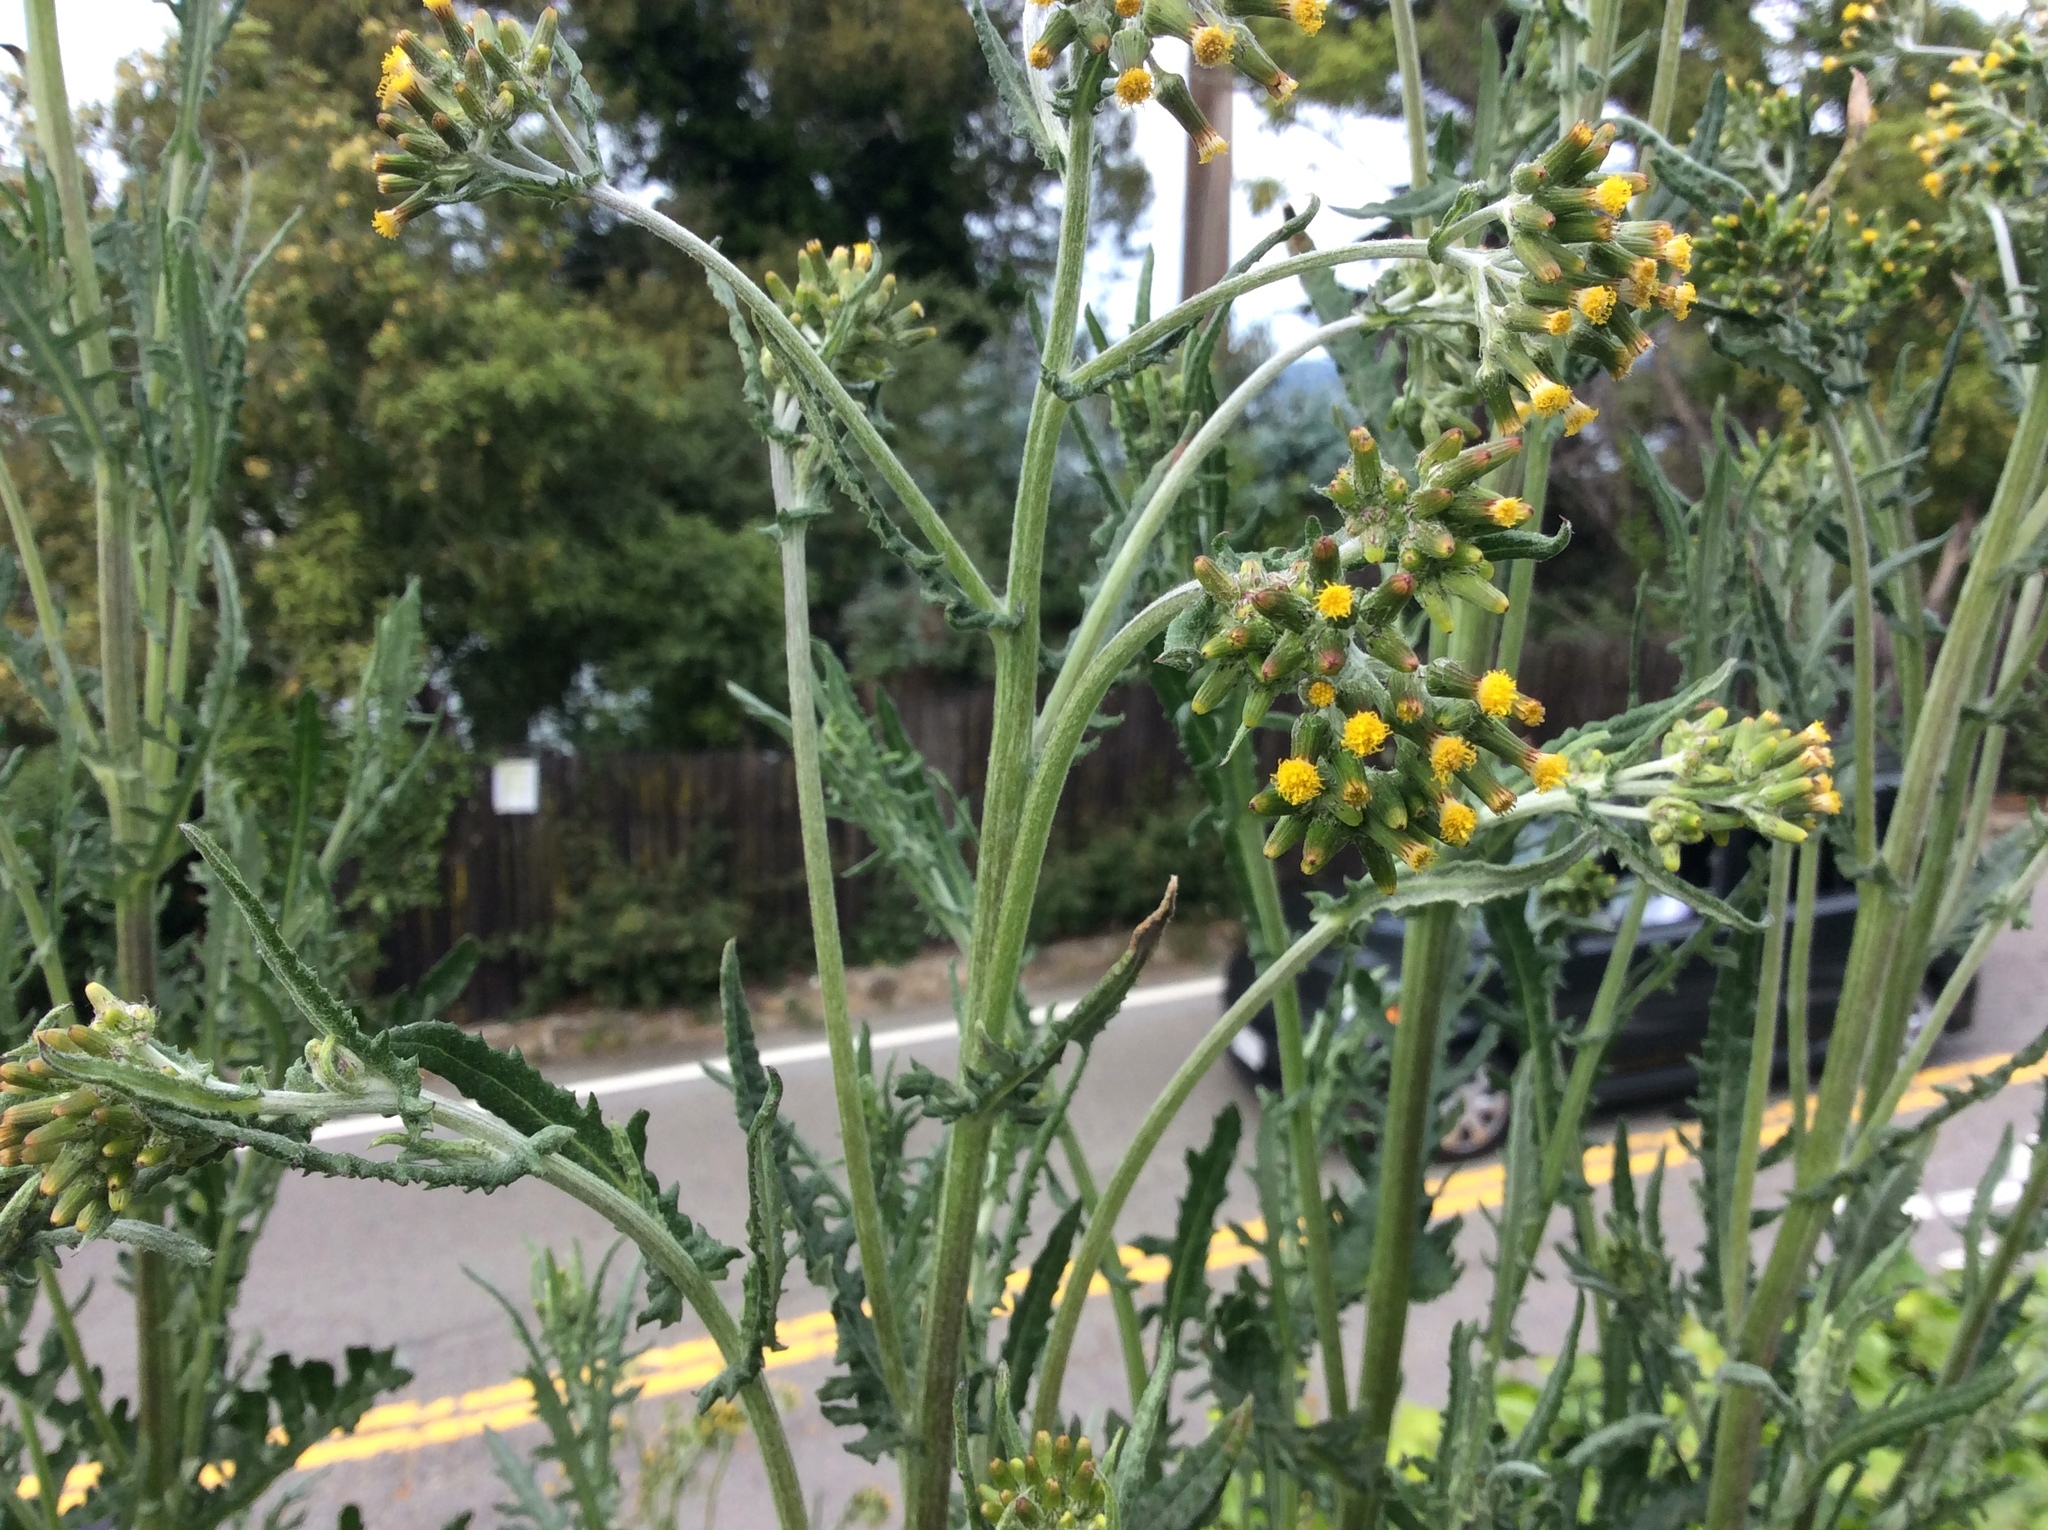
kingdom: Plantae
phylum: Tracheophyta
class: Magnoliopsida
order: Asterales
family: Asteraceae
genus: Senecio
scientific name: Senecio minimus
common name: Toothed fireweed
